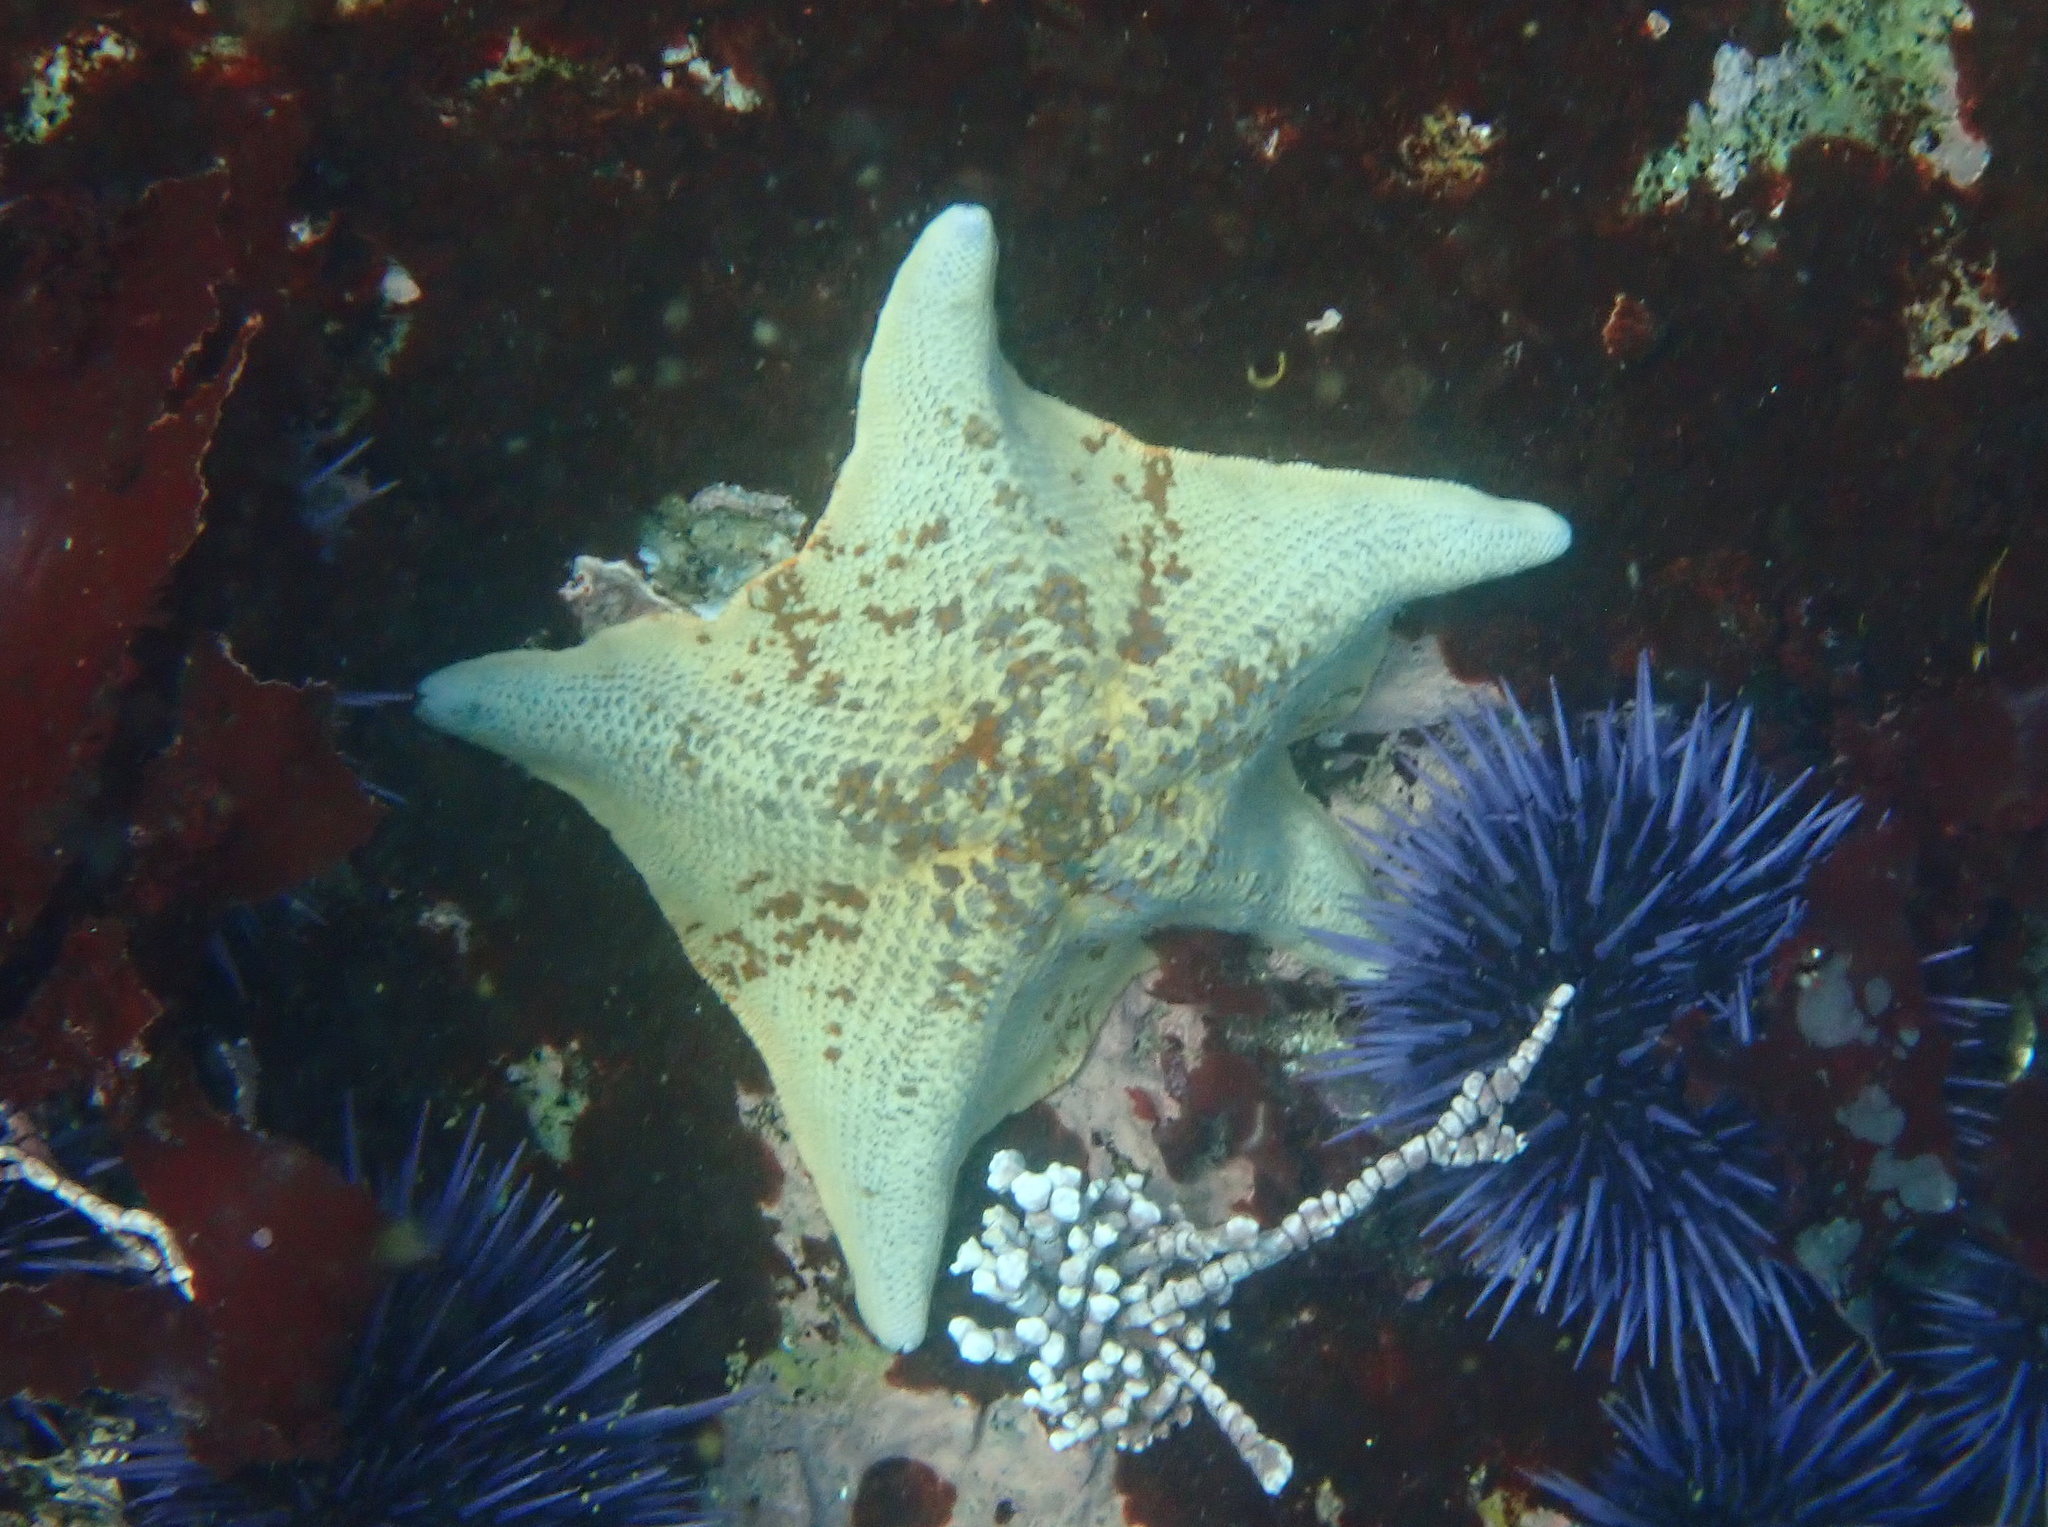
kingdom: Animalia
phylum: Echinodermata
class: Asteroidea
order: Valvatida
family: Asterinidae
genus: Patiria
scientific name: Patiria miniata
